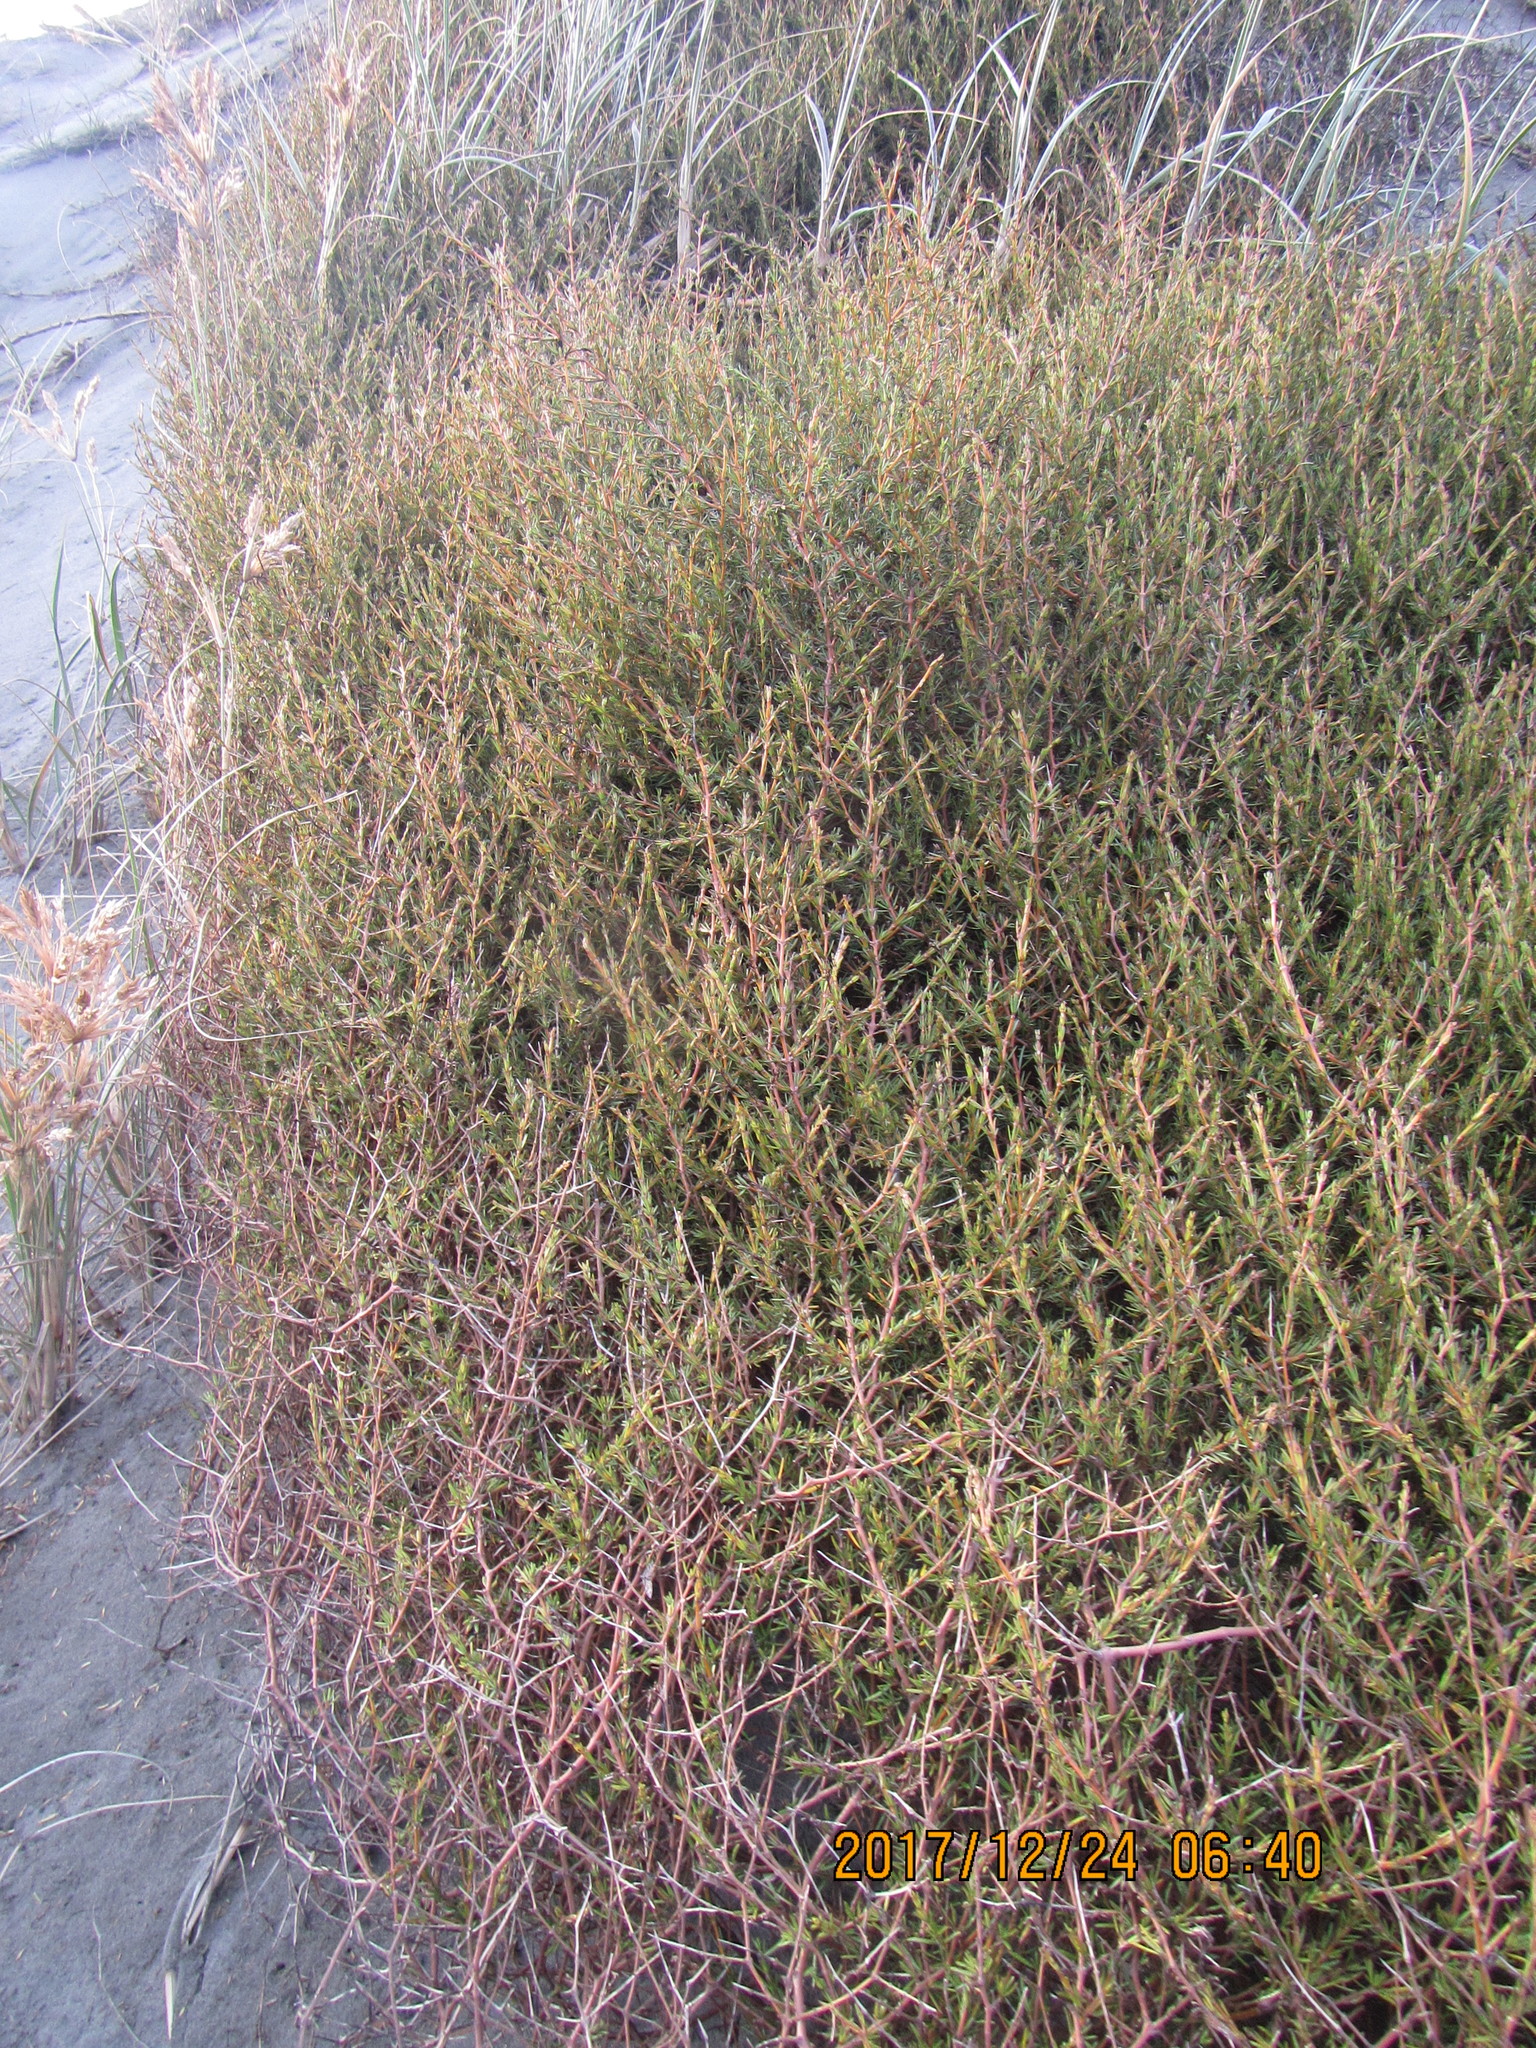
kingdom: Plantae
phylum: Tracheophyta
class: Magnoliopsida
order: Gentianales
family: Rubiaceae
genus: Coprosma
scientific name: Coprosma acerosa
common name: Sand coprosma
